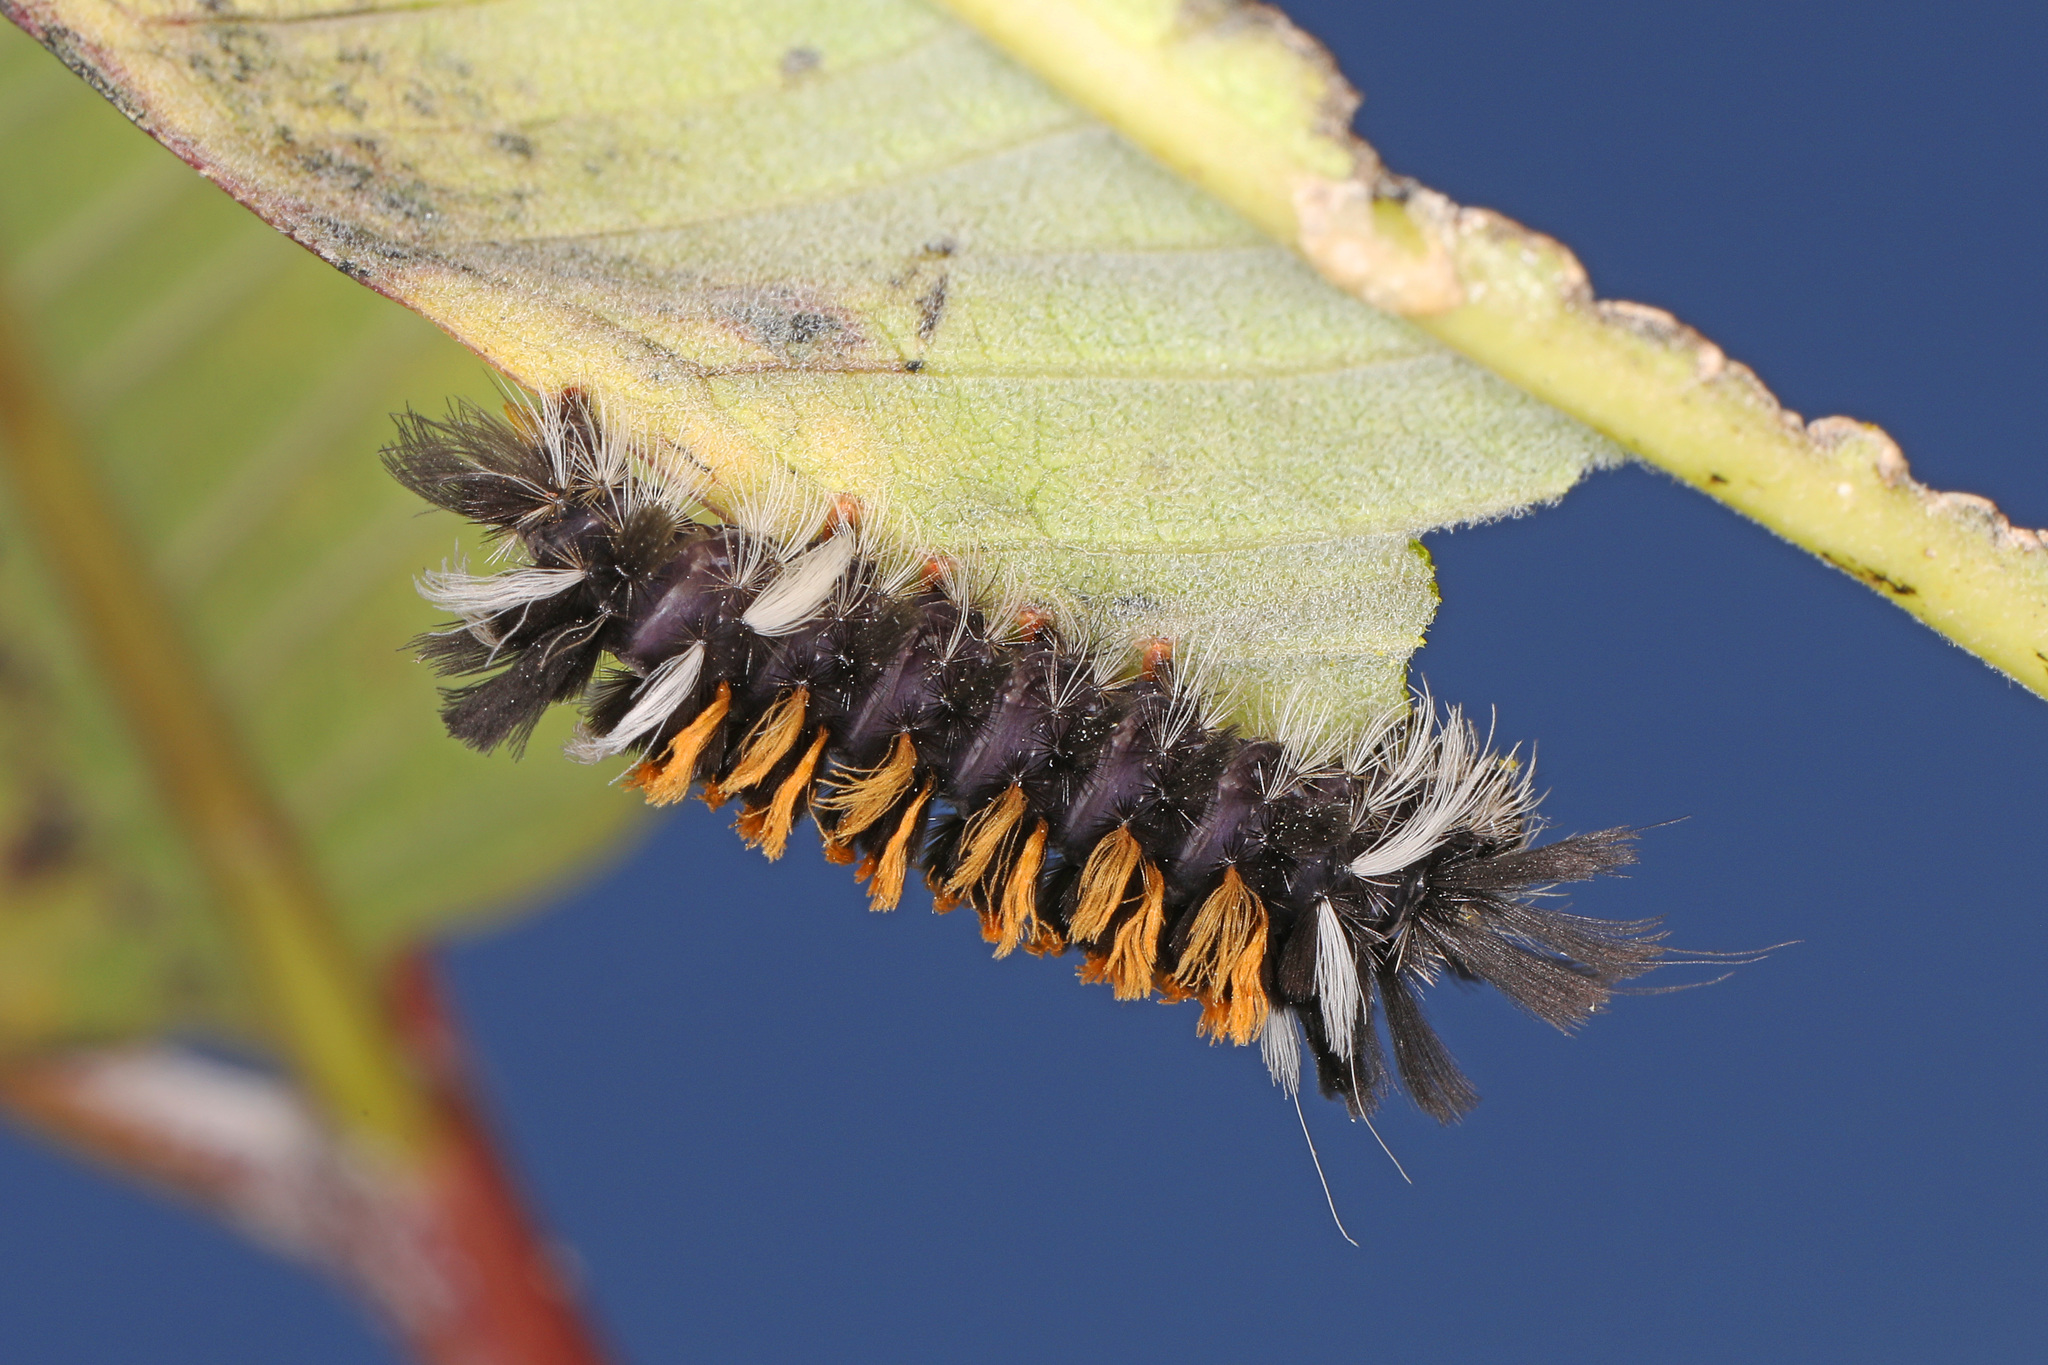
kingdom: Animalia
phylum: Arthropoda
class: Insecta
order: Lepidoptera
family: Erebidae
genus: Euchaetes
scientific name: Euchaetes egle
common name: Milkweed tussock moth
